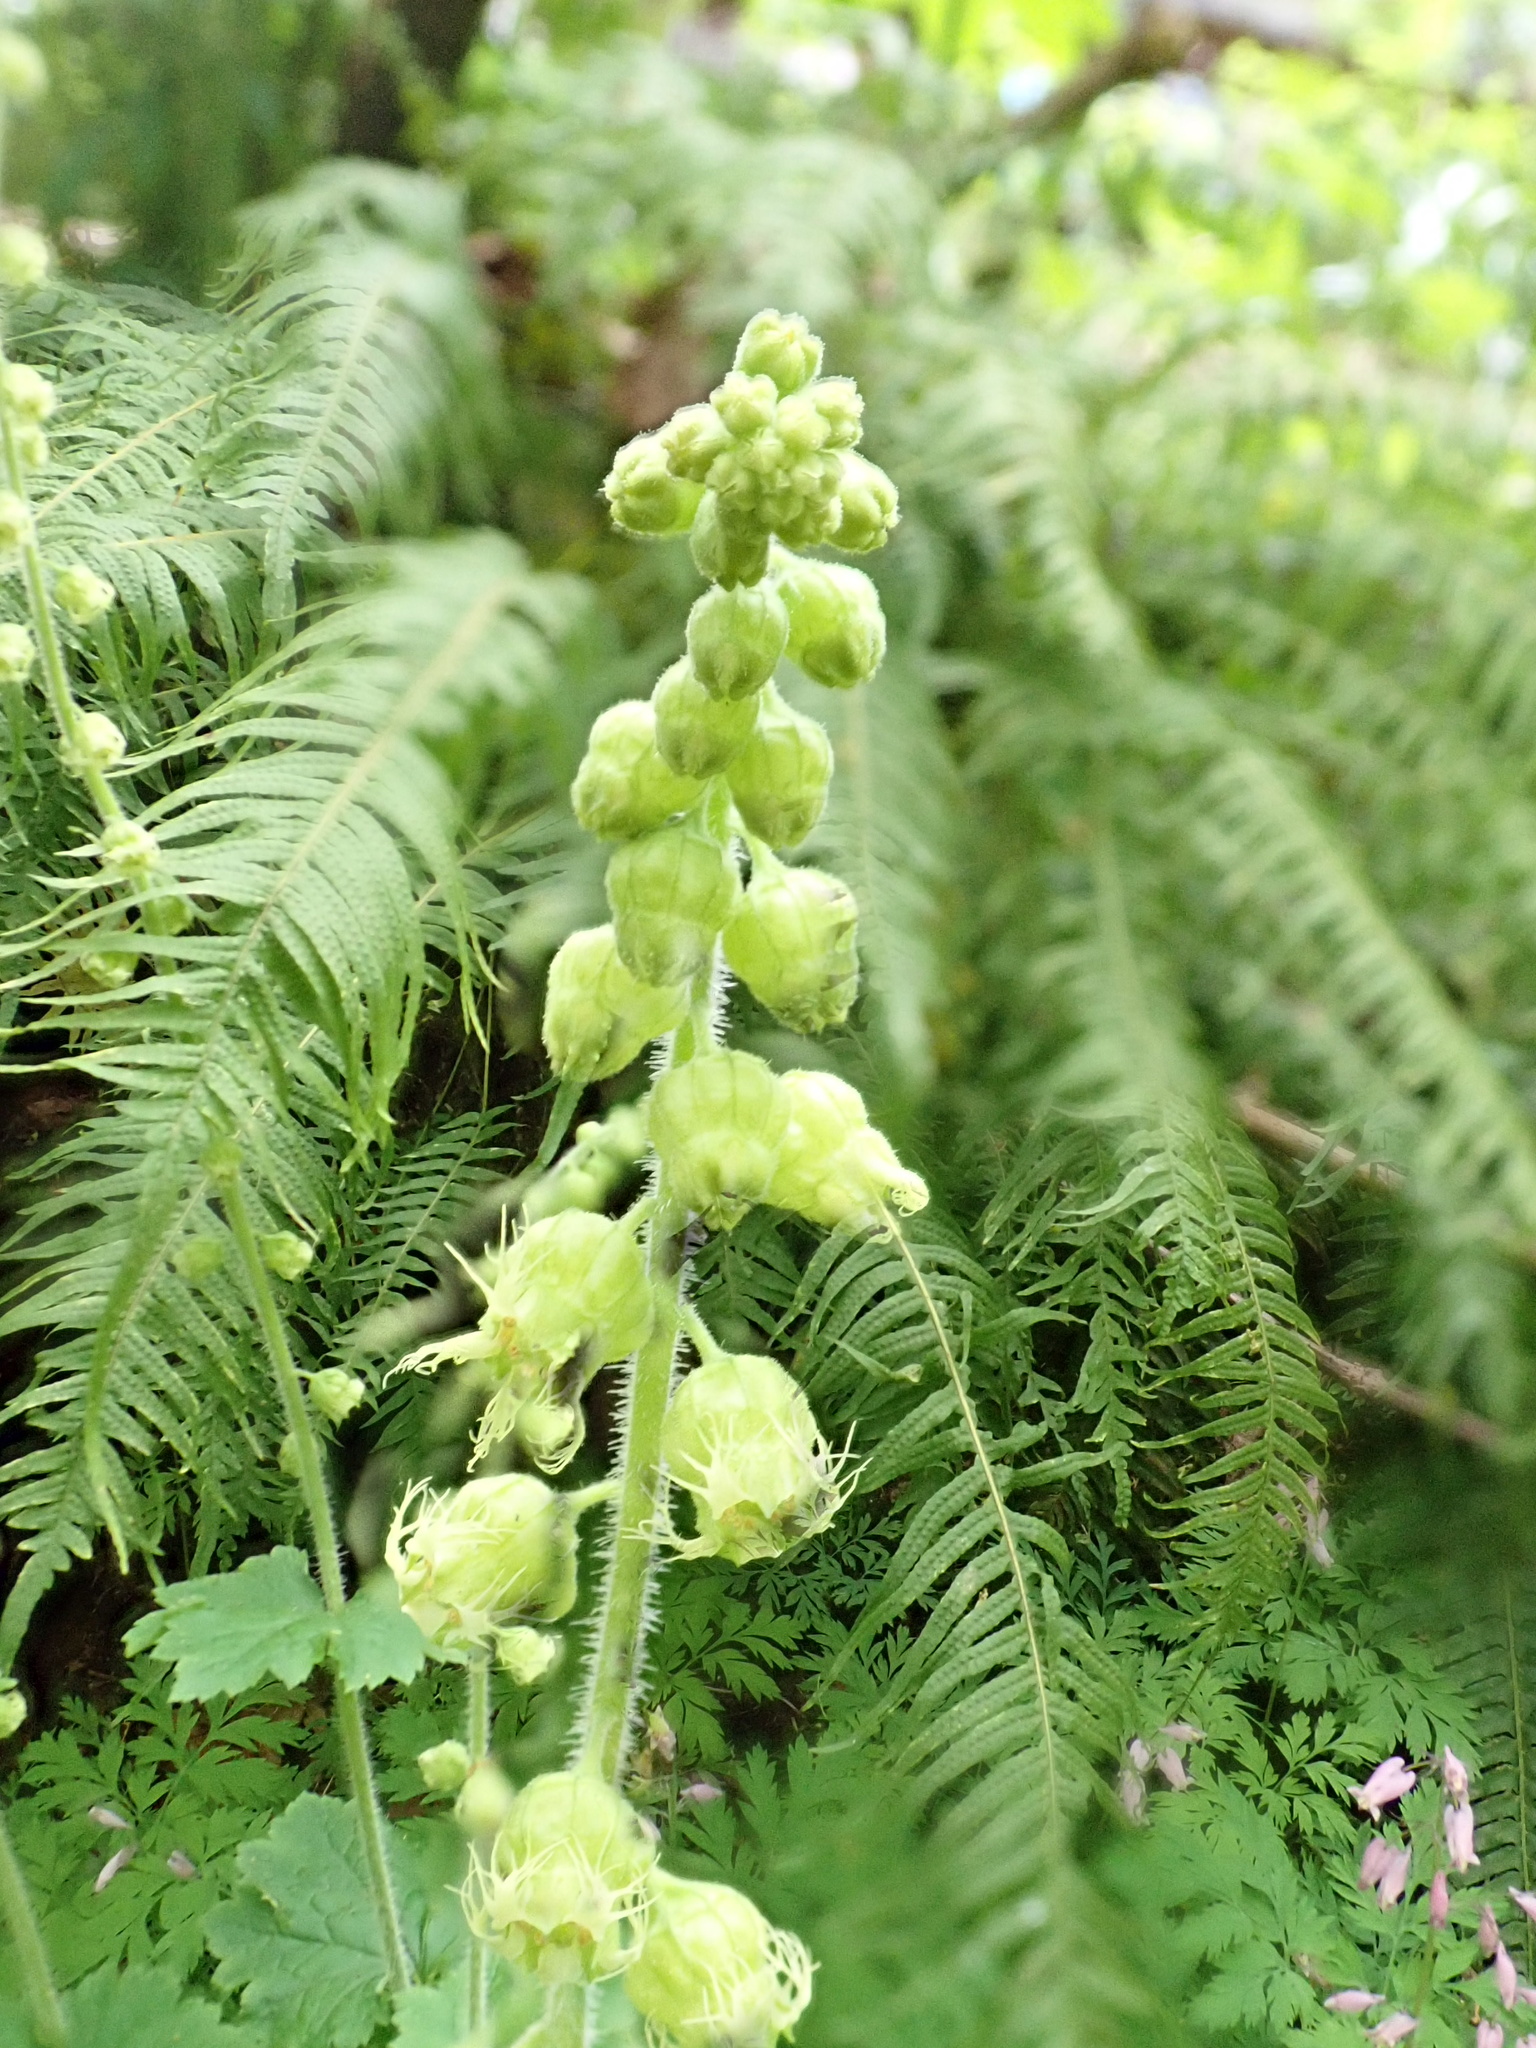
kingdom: Plantae
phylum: Tracheophyta
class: Magnoliopsida
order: Saxifragales
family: Saxifragaceae
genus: Tellima
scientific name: Tellima grandiflora
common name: Fringecups
